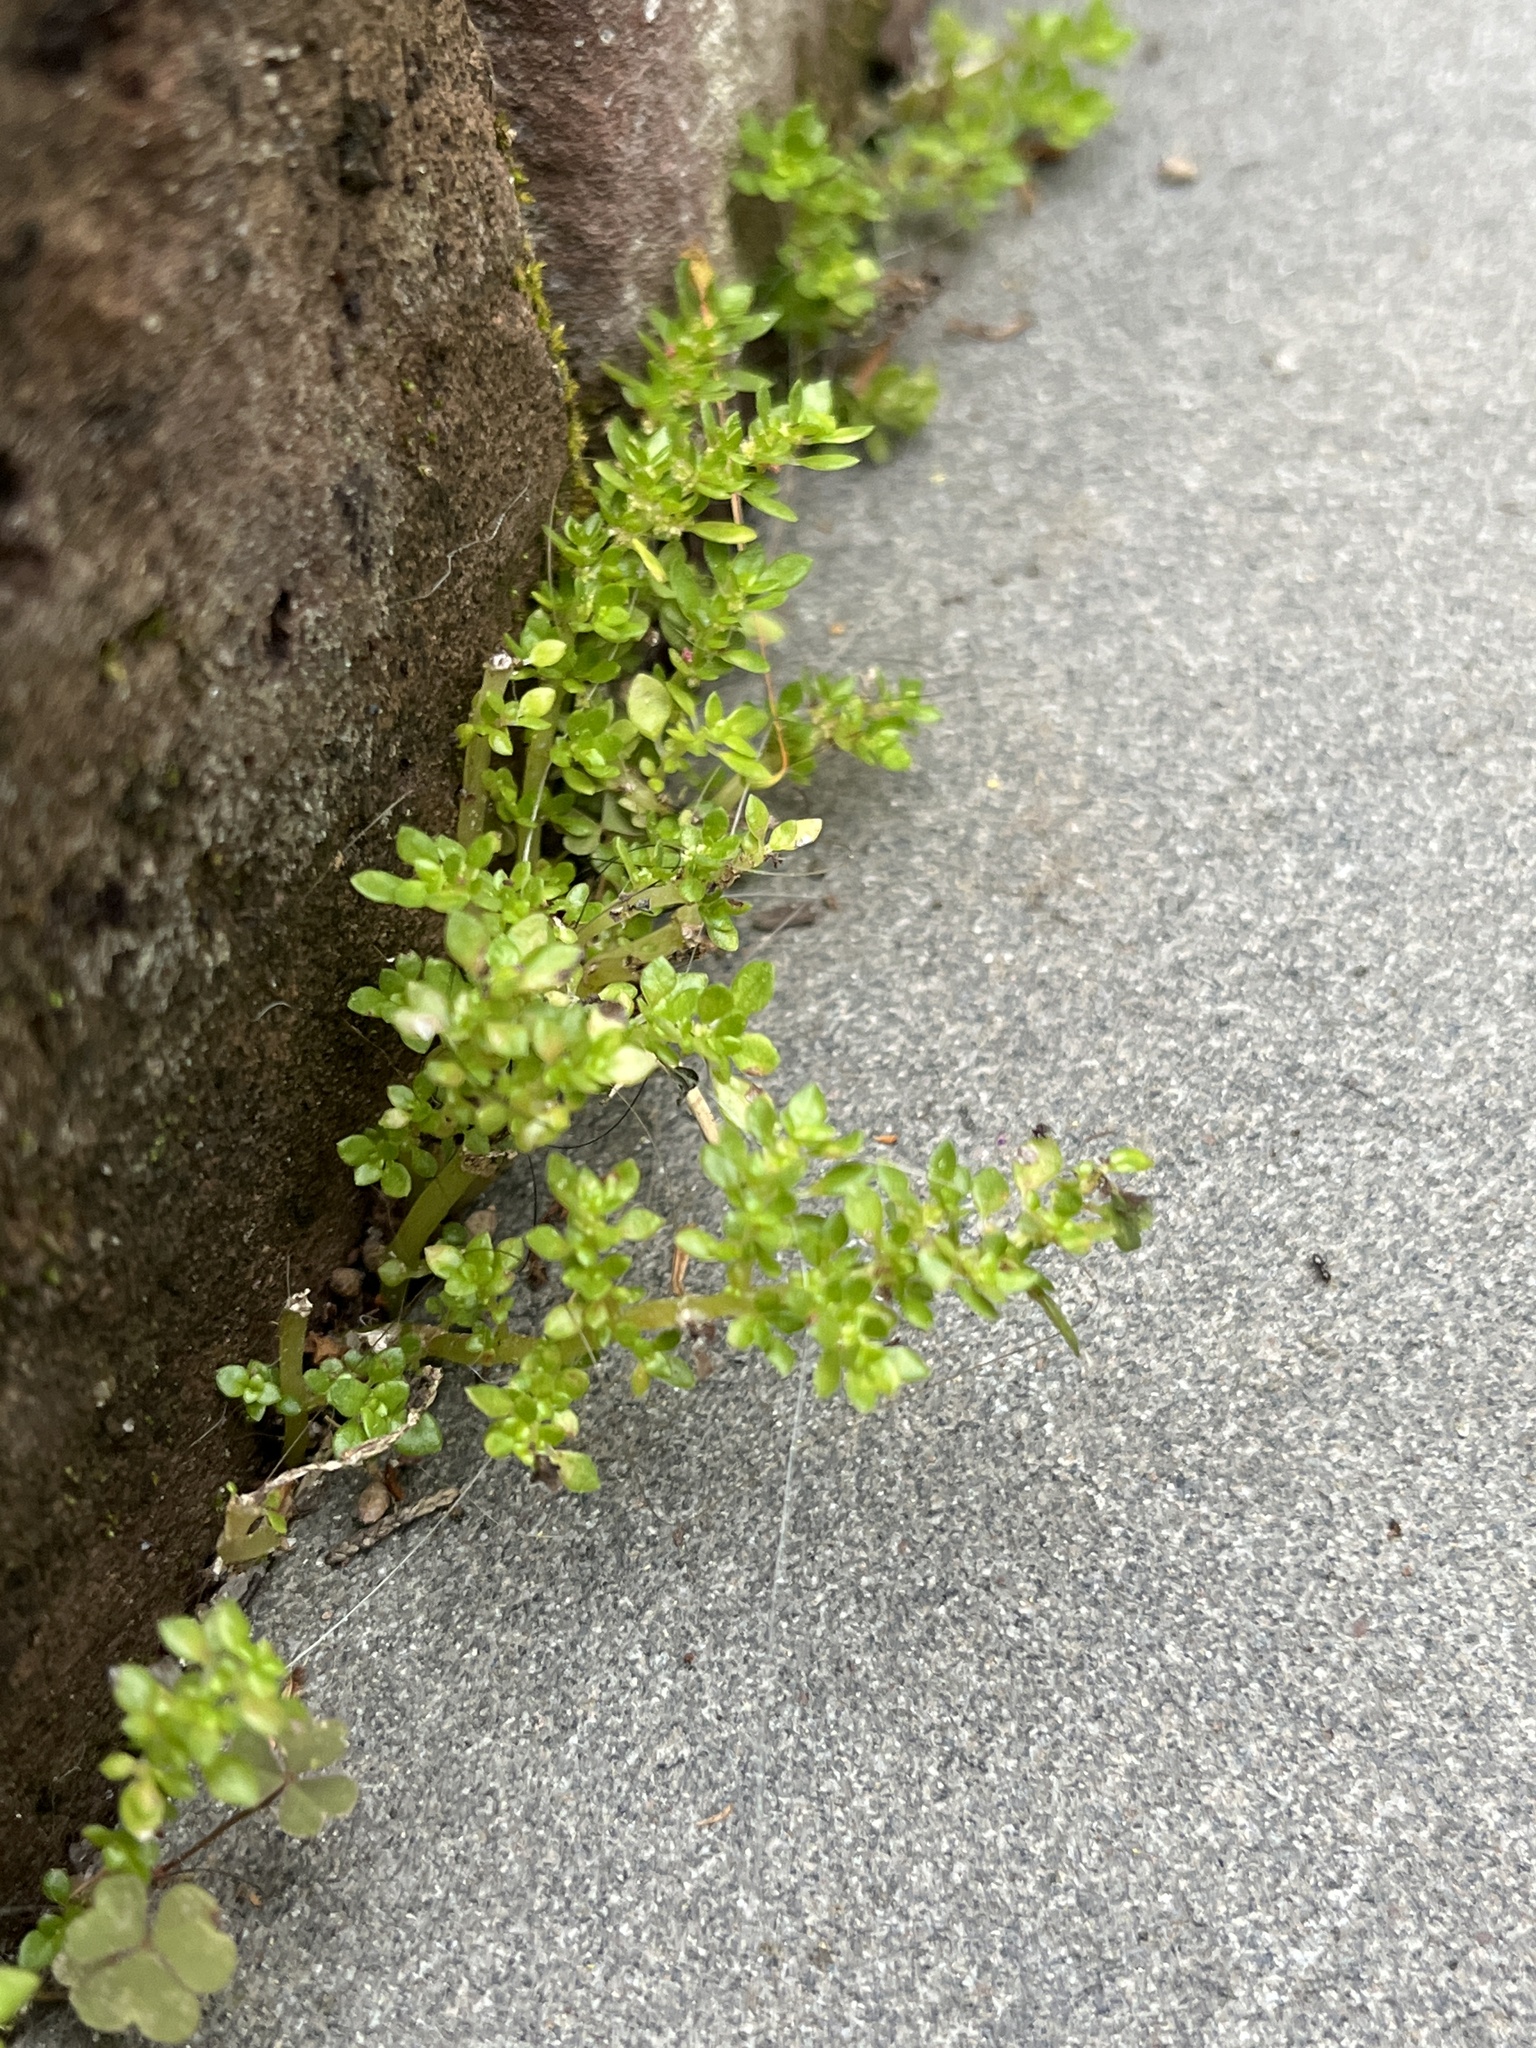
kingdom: Plantae
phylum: Tracheophyta
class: Magnoliopsida
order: Rosales
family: Urticaceae
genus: Pilea
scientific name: Pilea microphylla
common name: Artillery-plant
